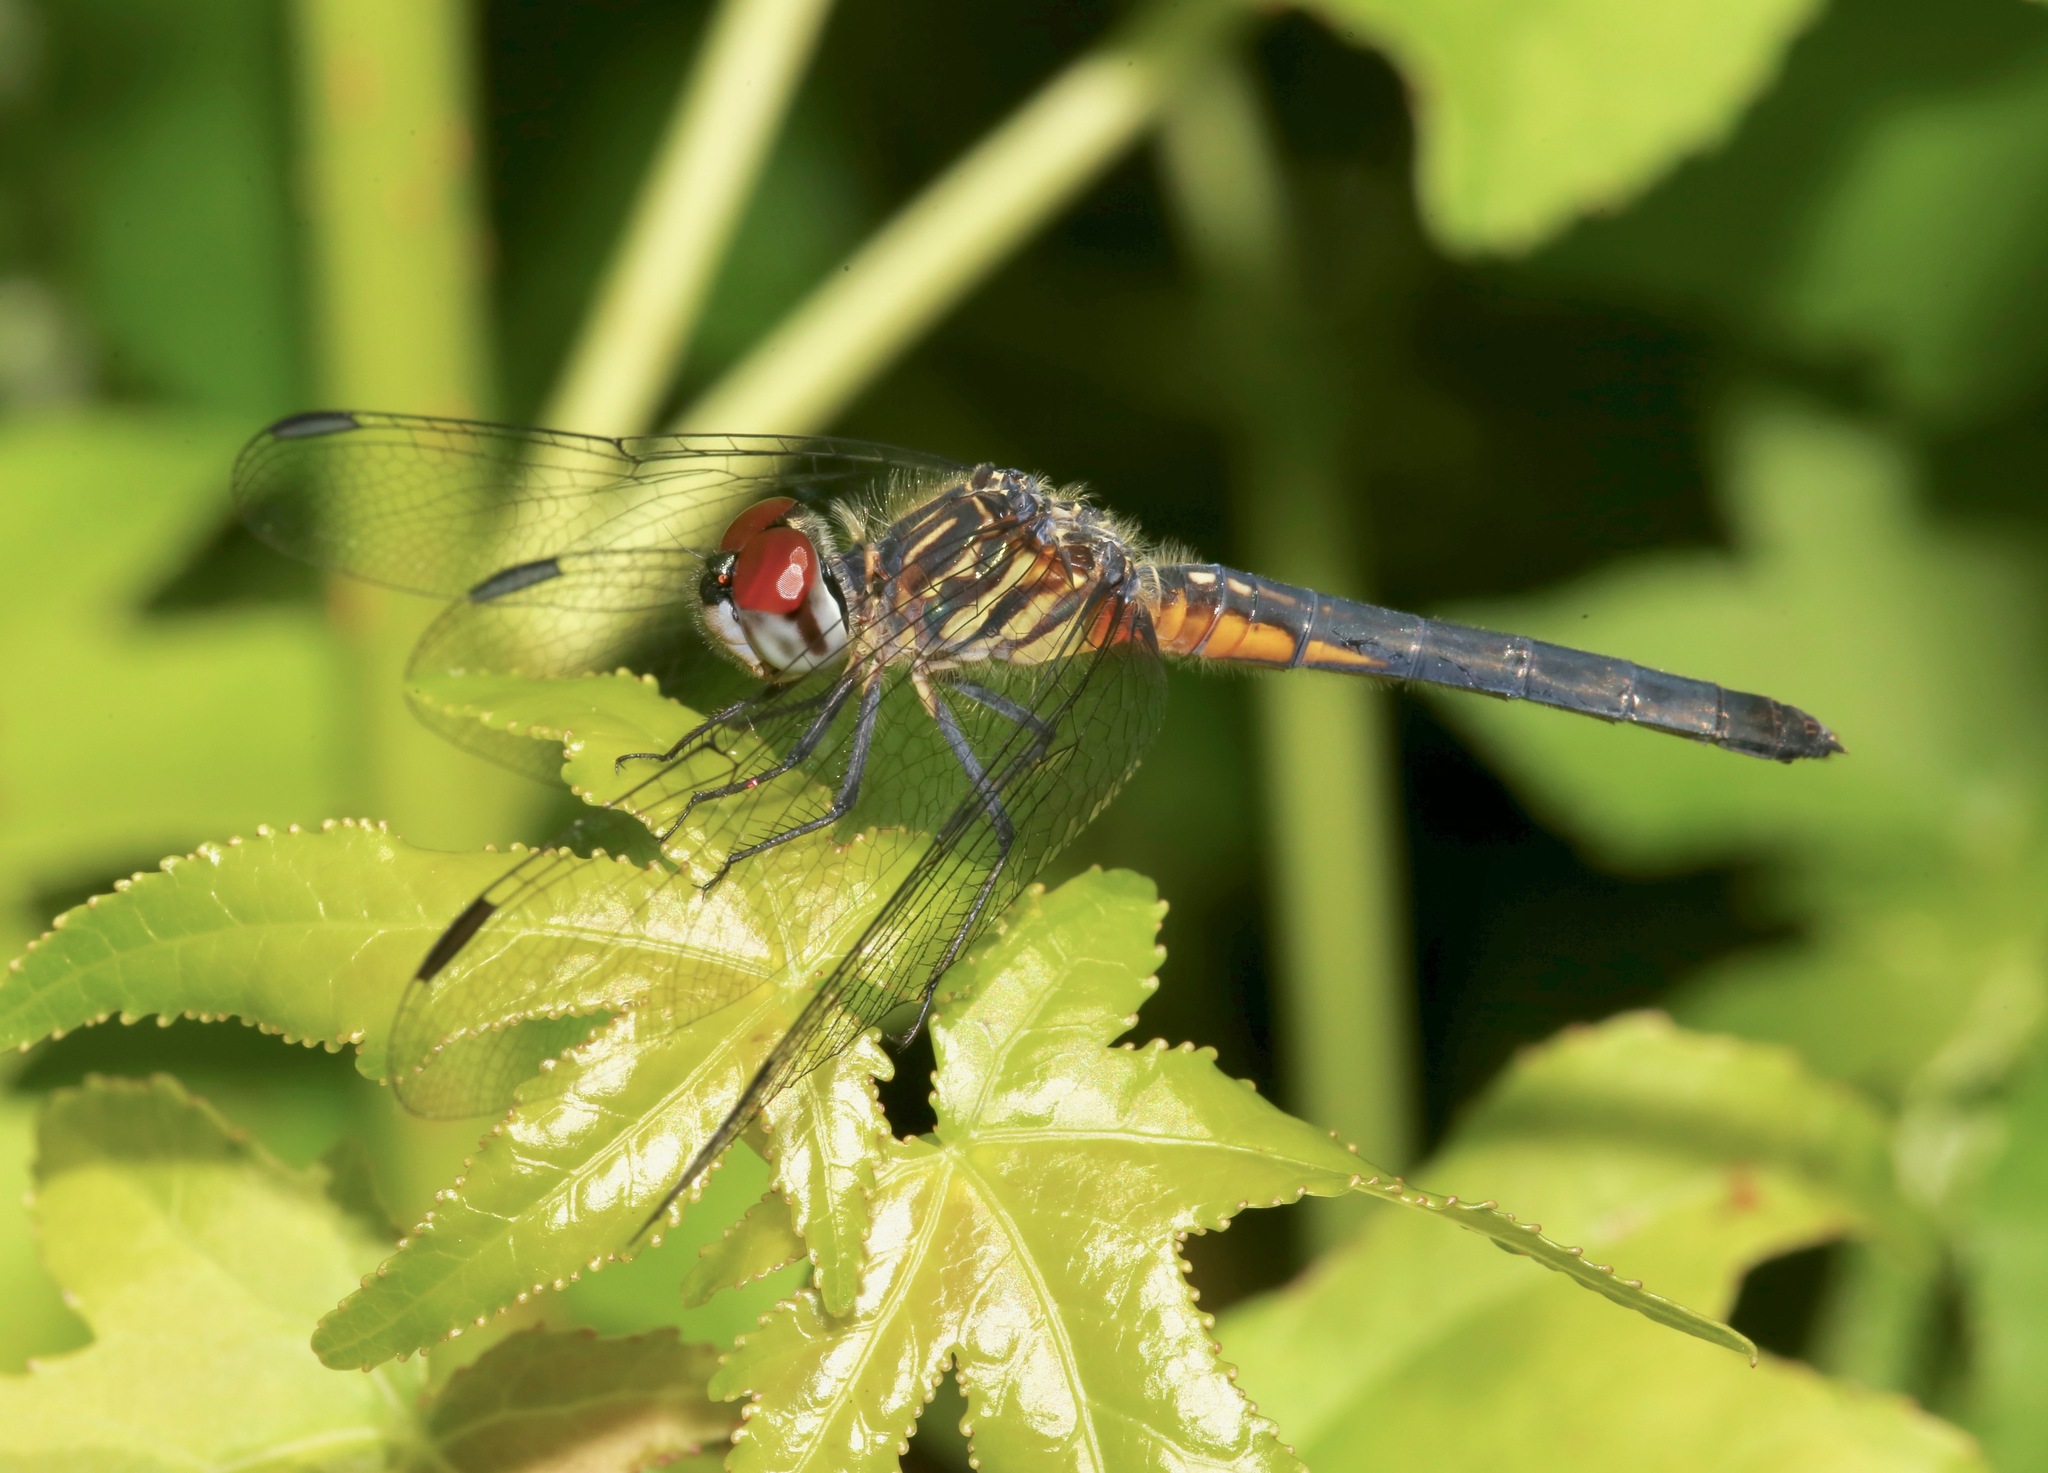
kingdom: Animalia
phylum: Arthropoda
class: Insecta
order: Odonata
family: Libellulidae
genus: Pachydiplax
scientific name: Pachydiplax longipennis
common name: Blue dasher
